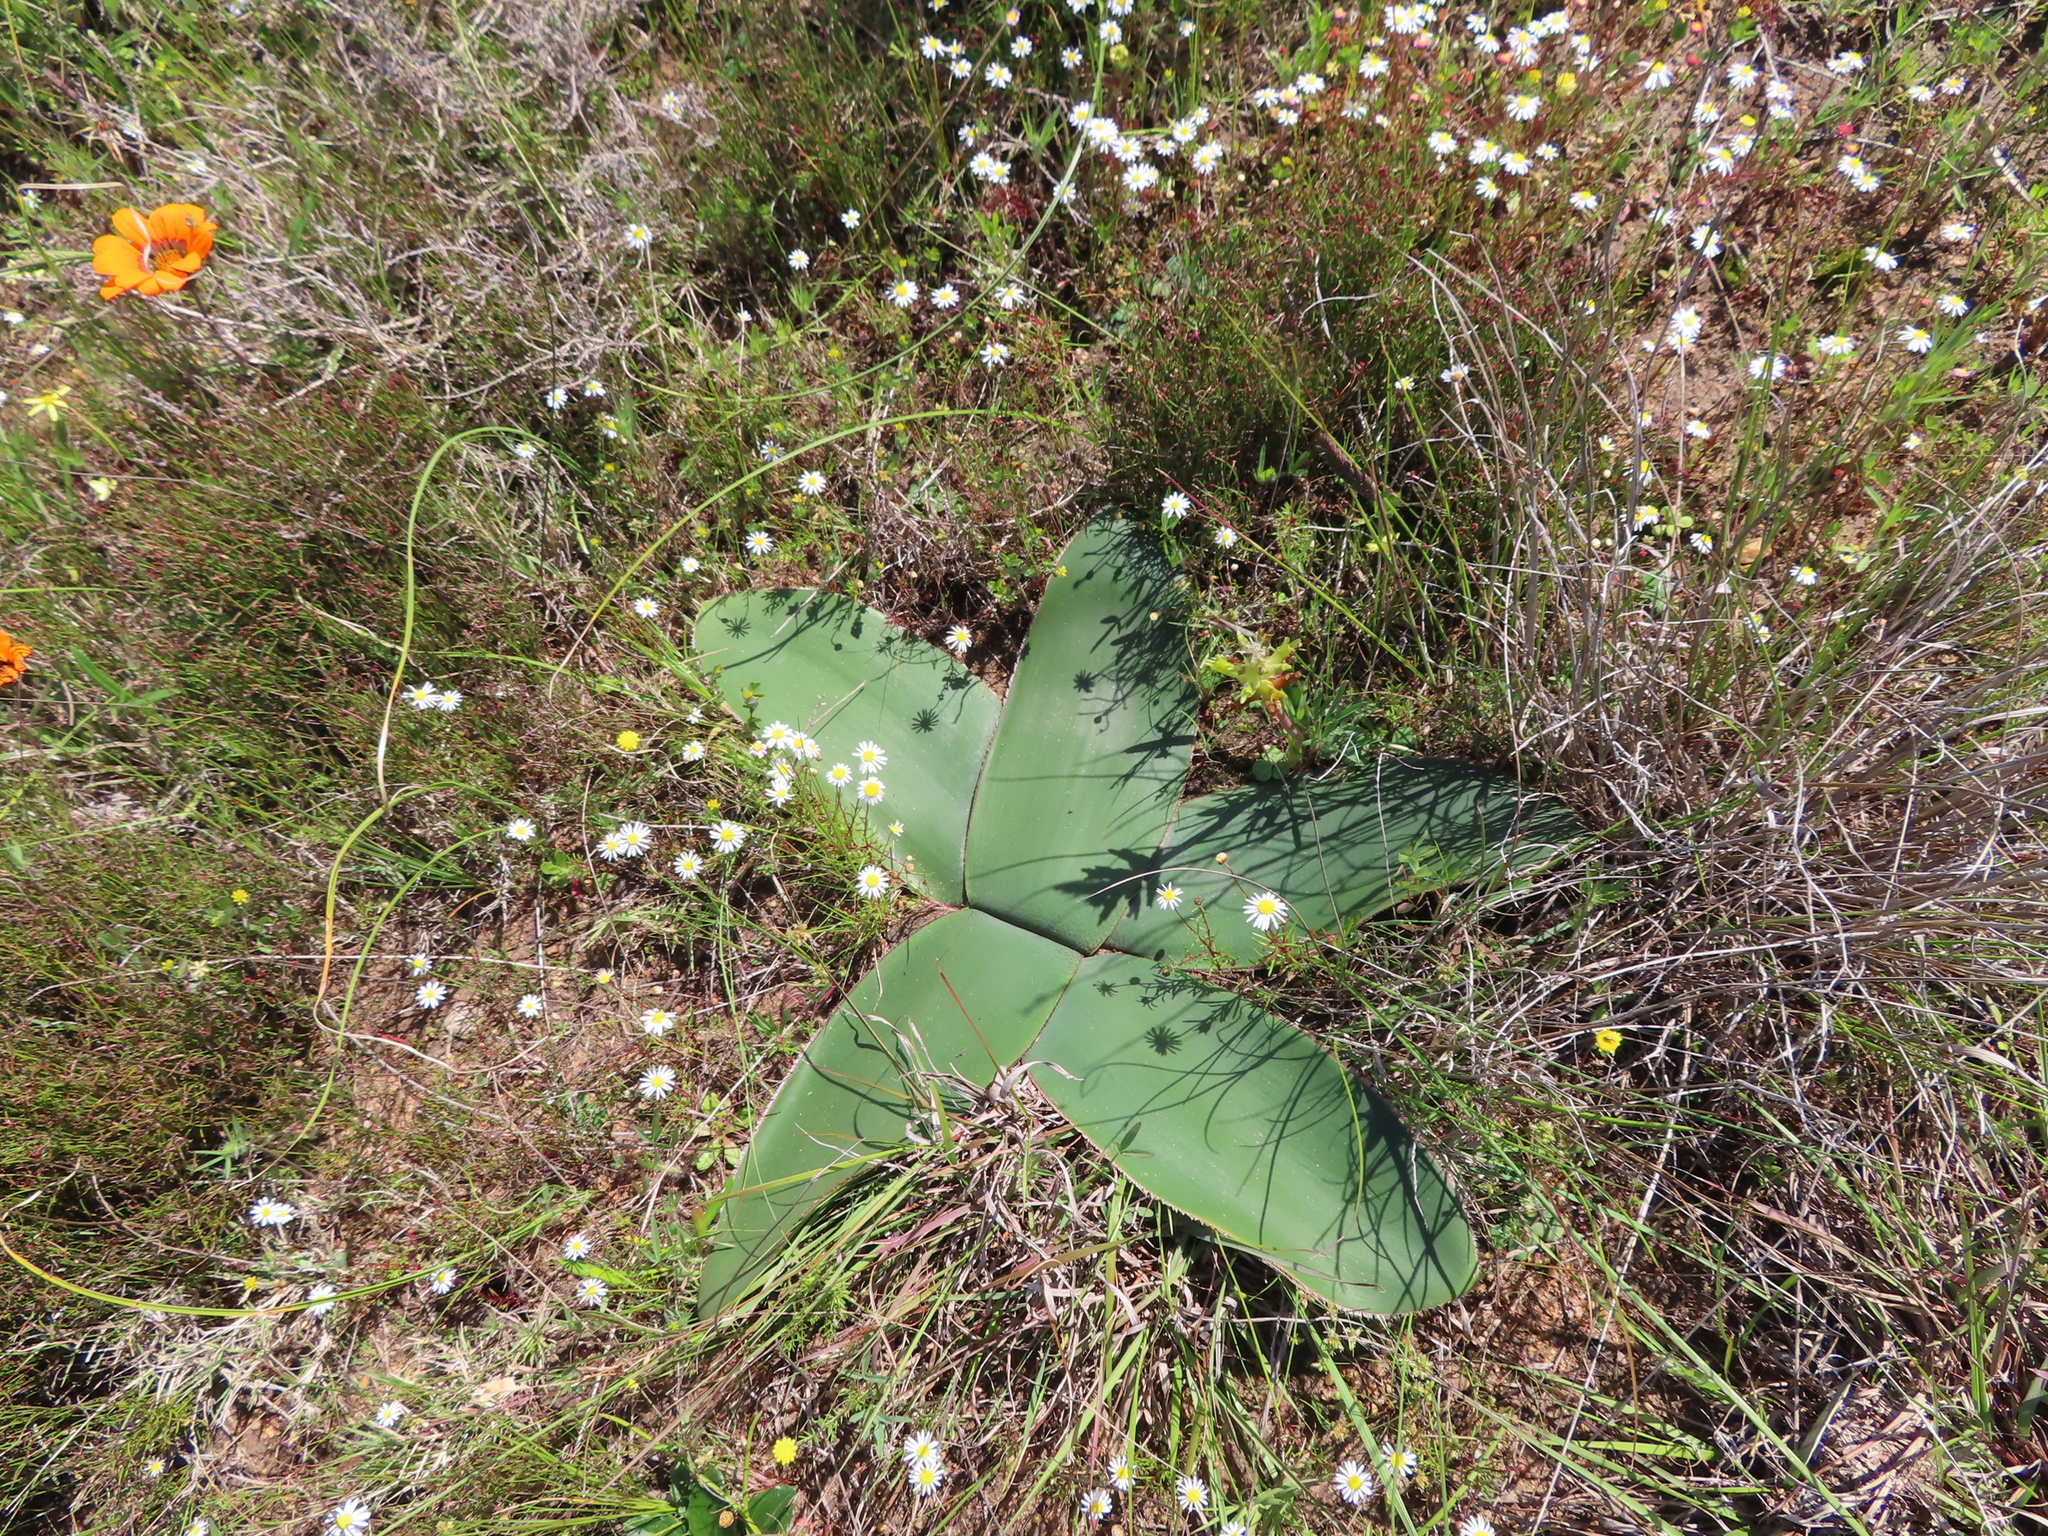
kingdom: Plantae
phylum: Tracheophyta
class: Liliopsida
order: Asparagales
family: Amaryllidaceae
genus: Crossyne
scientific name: Crossyne guttata
